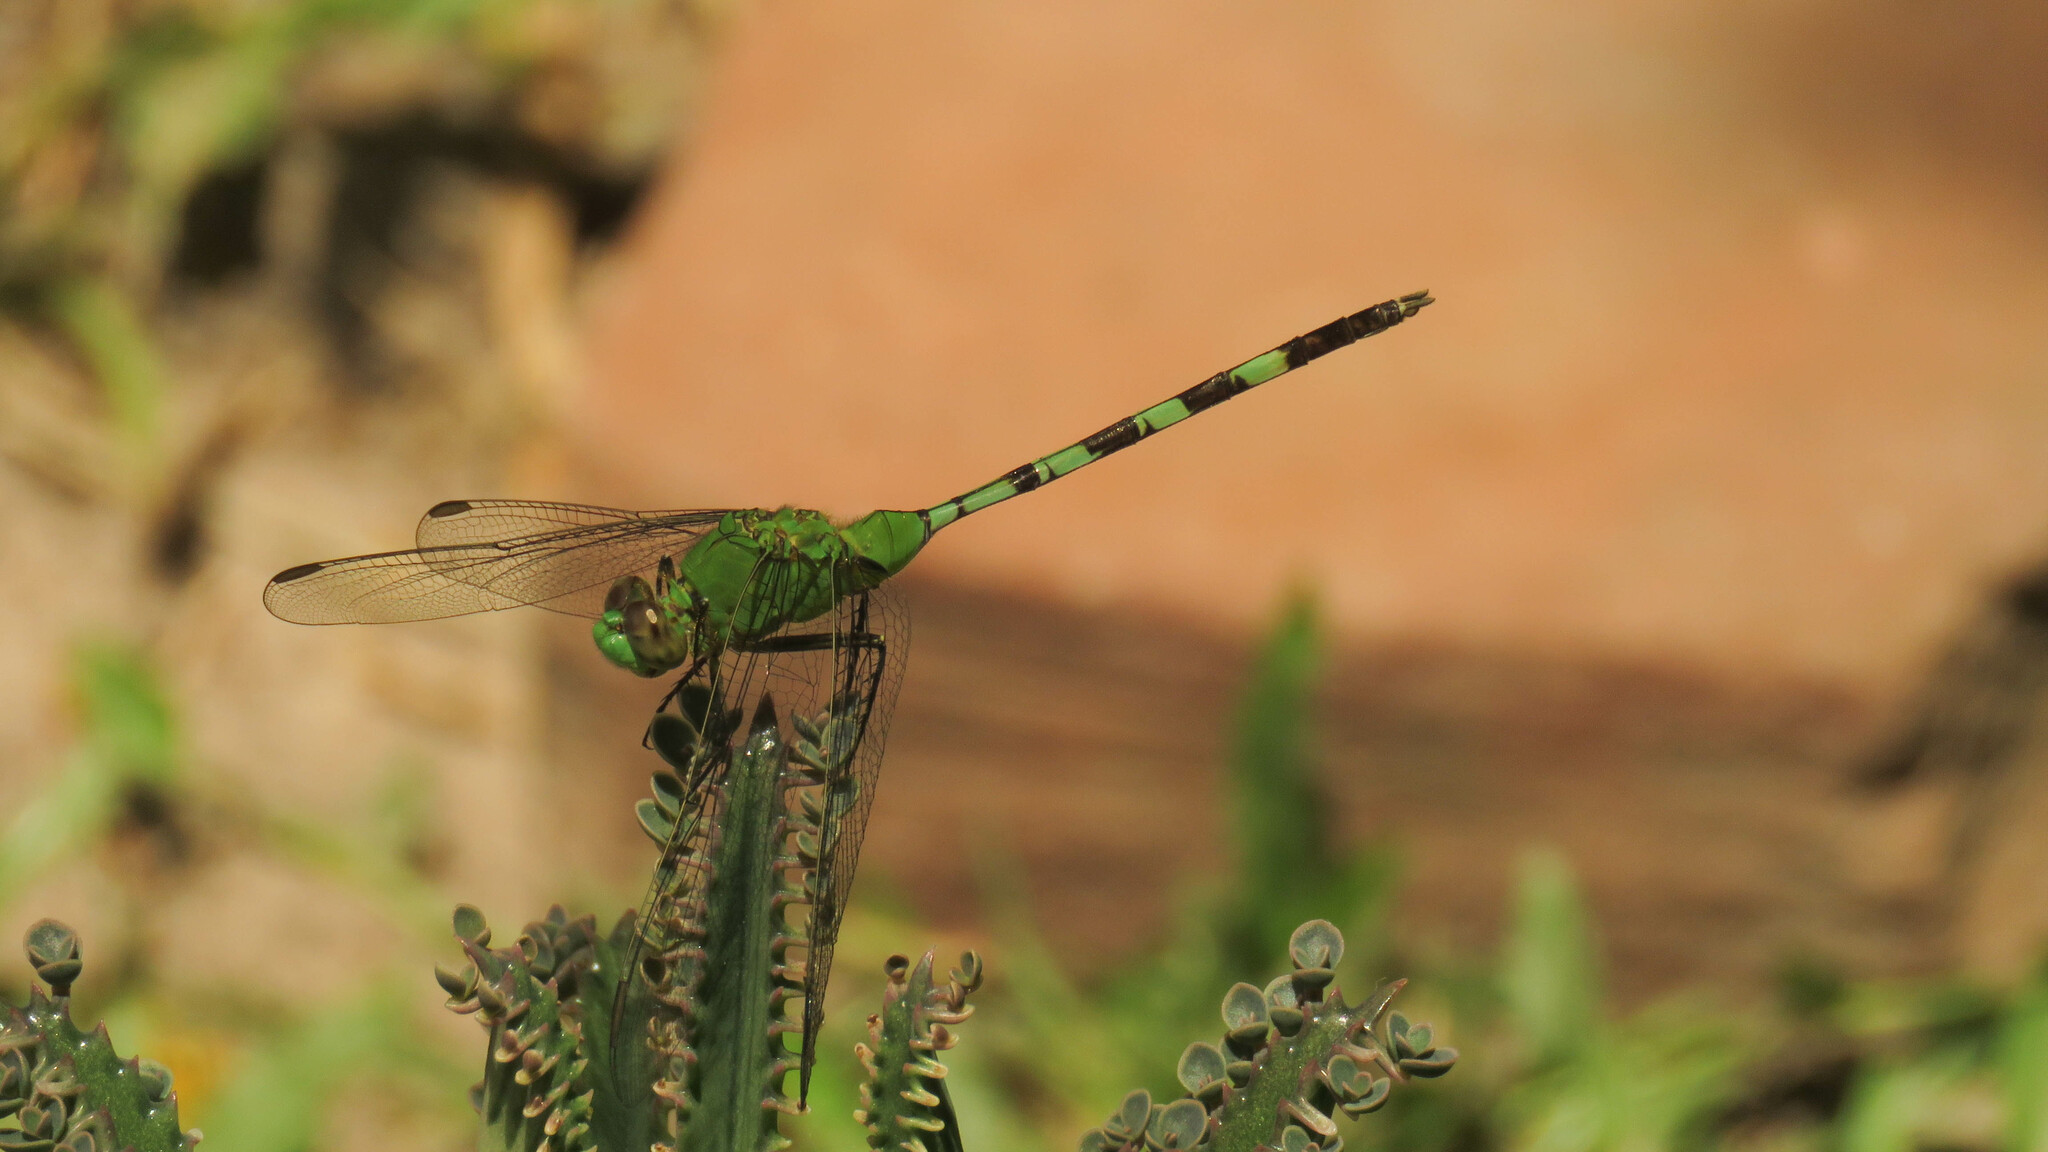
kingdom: Animalia
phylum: Arthropoda
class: Insecta
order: Odonata
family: Libellulidae
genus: Erythemis
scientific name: Erythemis vesiculosa
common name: Great pondhawk
